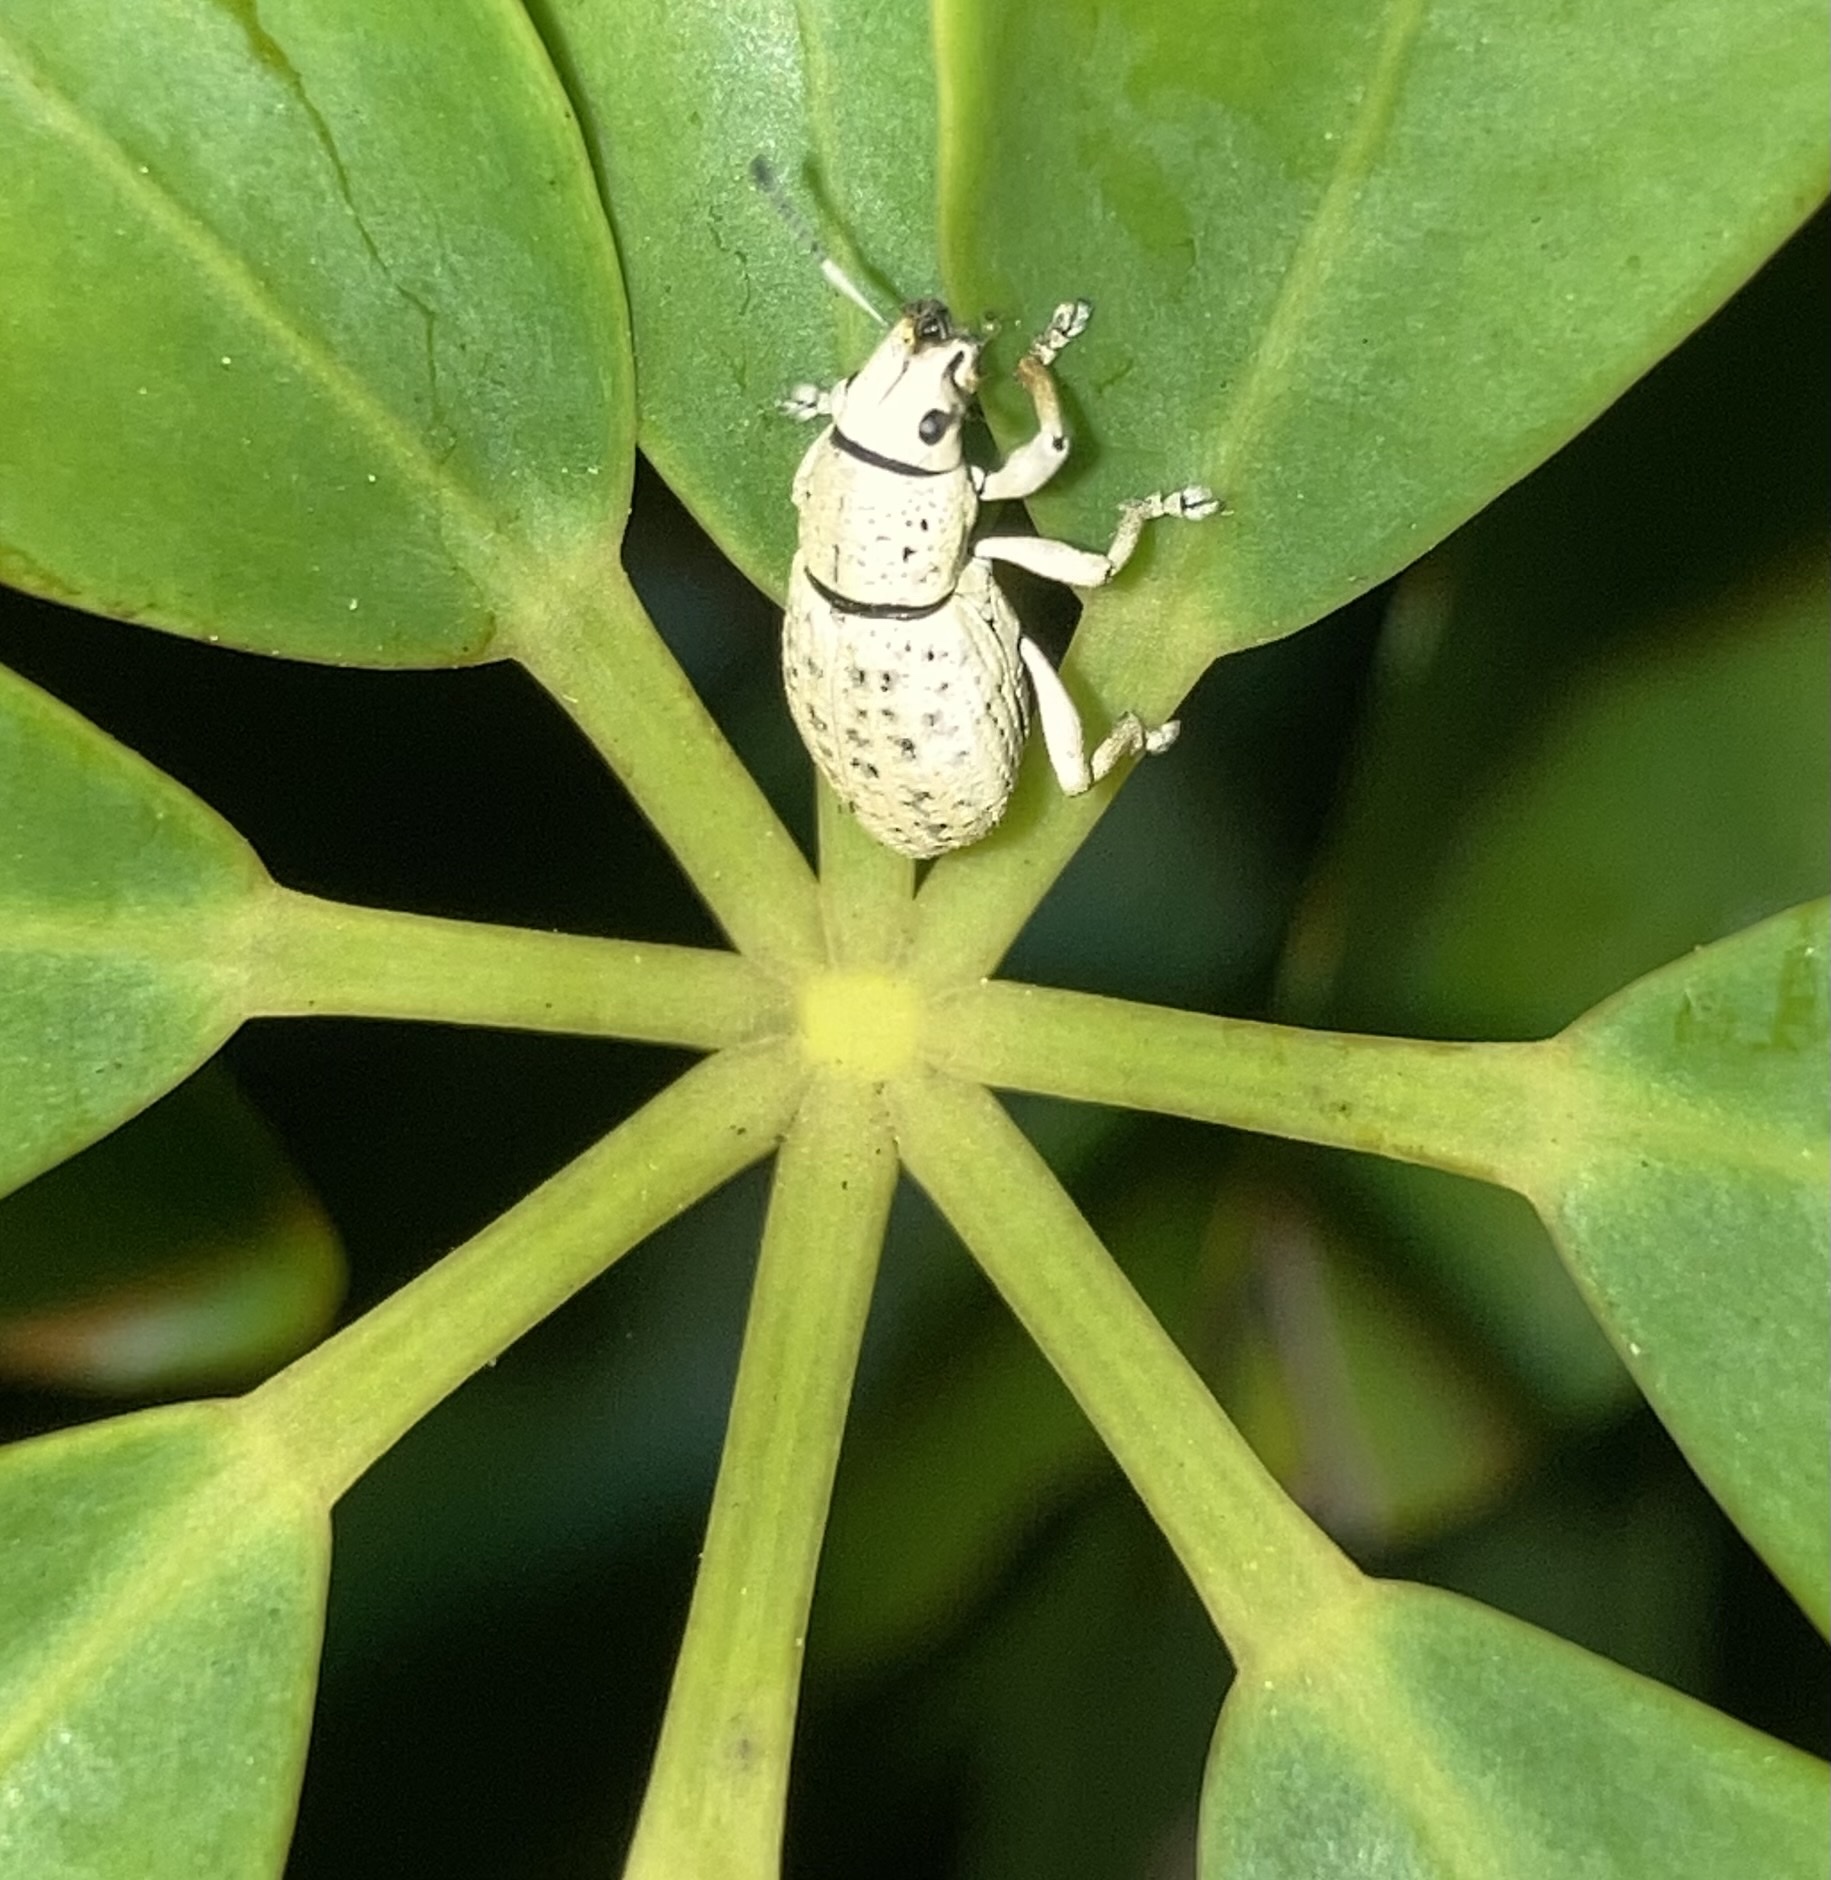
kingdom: Animalia
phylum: Arthropoda
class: Insecta
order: Coleoptera
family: Curculionidae
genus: Artipus
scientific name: Artipus floridanus
